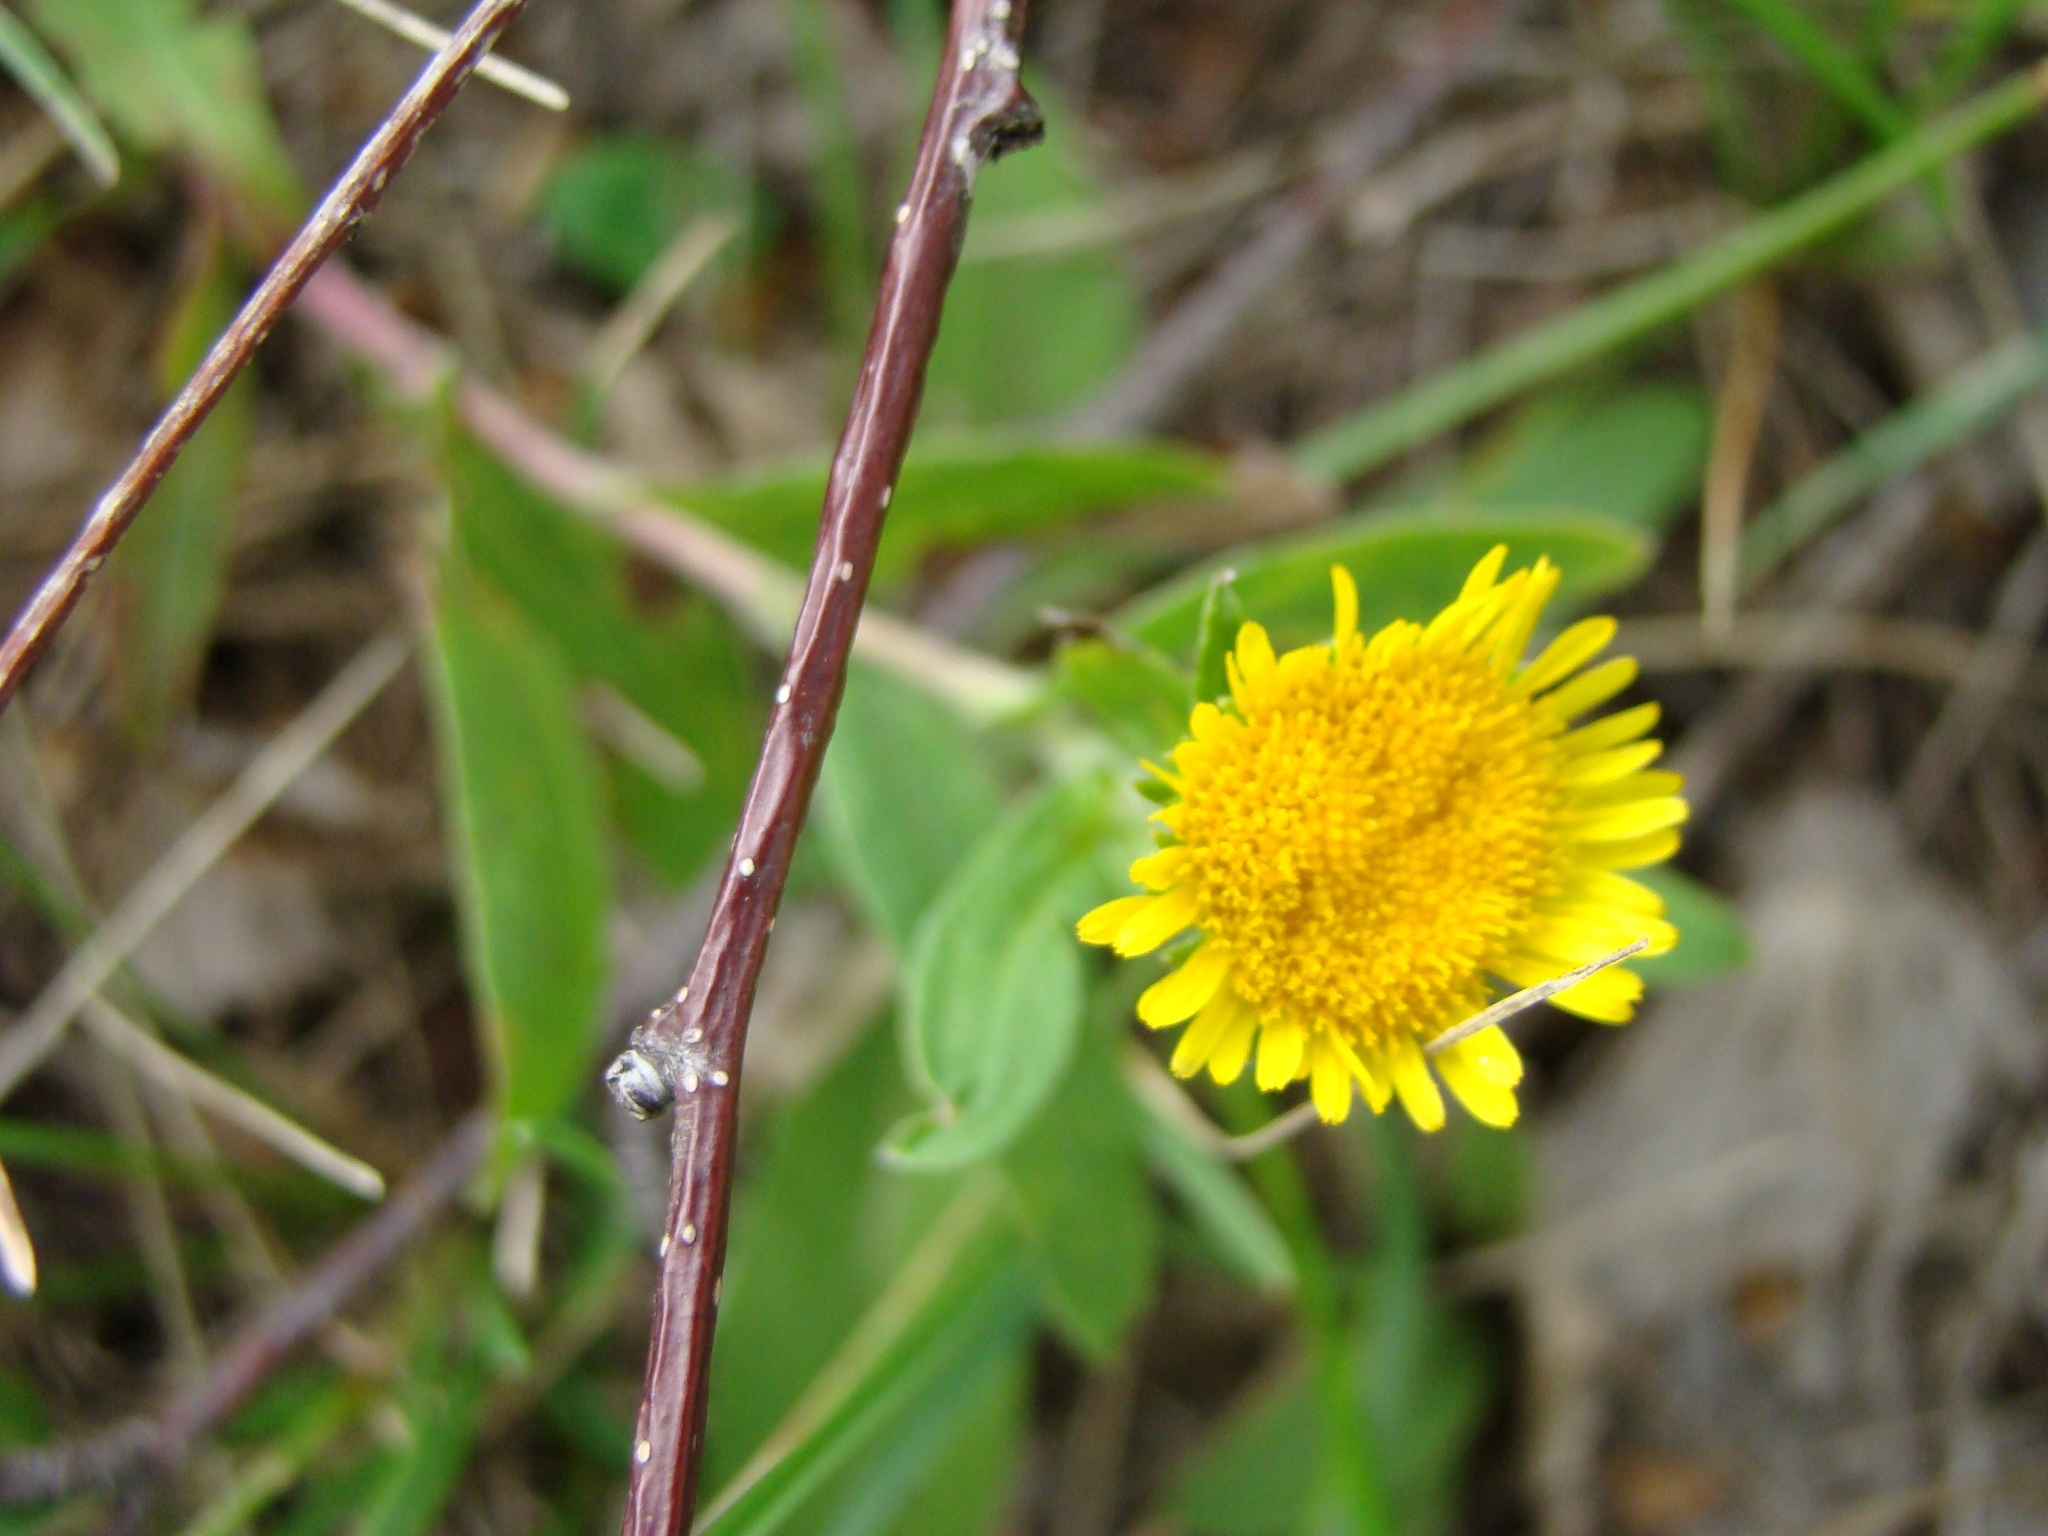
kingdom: Plantae
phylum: Tracheophyta
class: Magnoliopsida
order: Asterales
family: Asteraceae
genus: Pentanema
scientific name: Pentanema britannicum
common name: British elecampane
